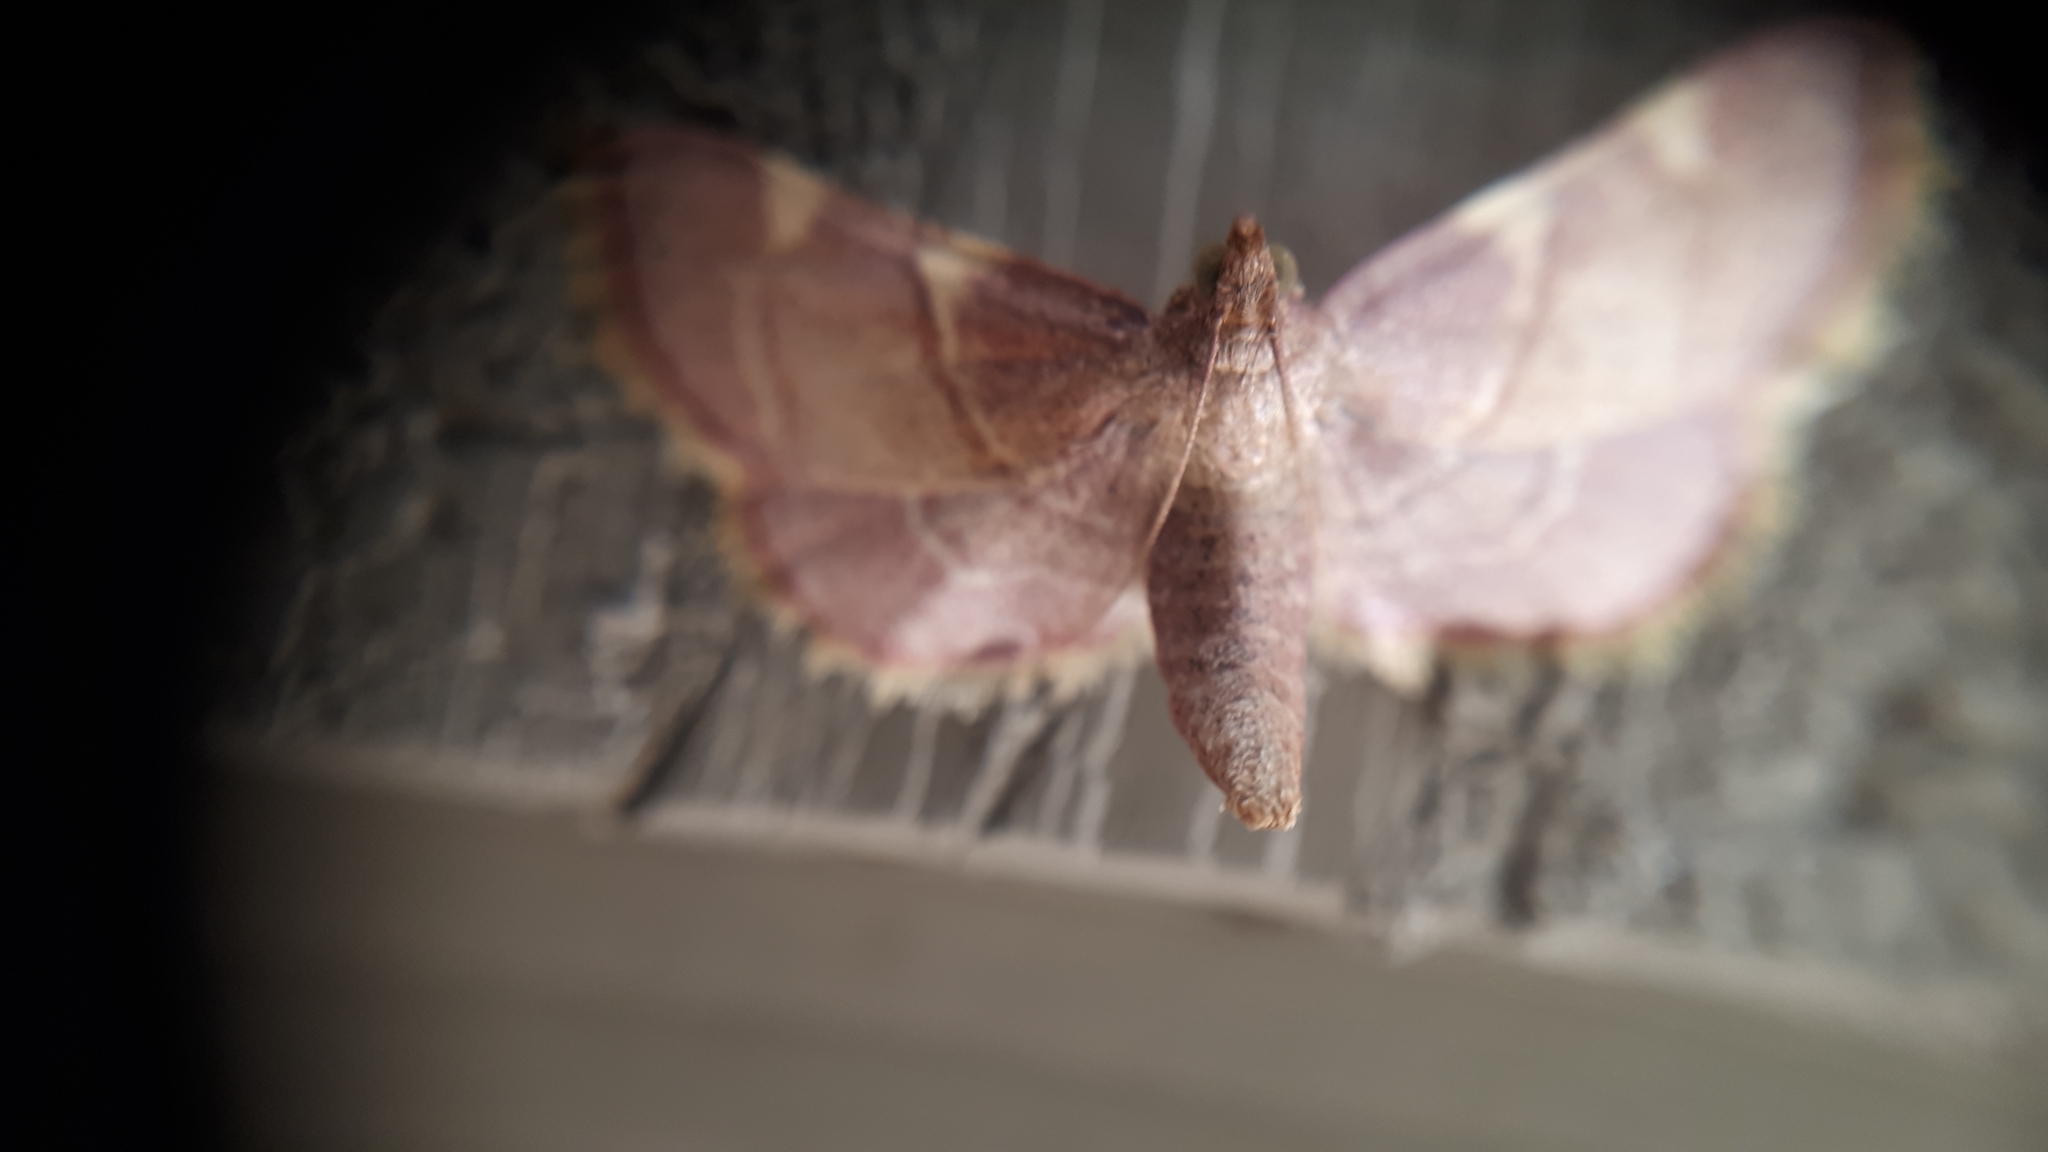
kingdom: Animalia
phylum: Arthropoda
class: Insecta
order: Lepidoptera
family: Pyralidae
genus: Hypsopygia
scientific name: Hypsopygia olinalis
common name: Yellow-fringed dolichomia moth
